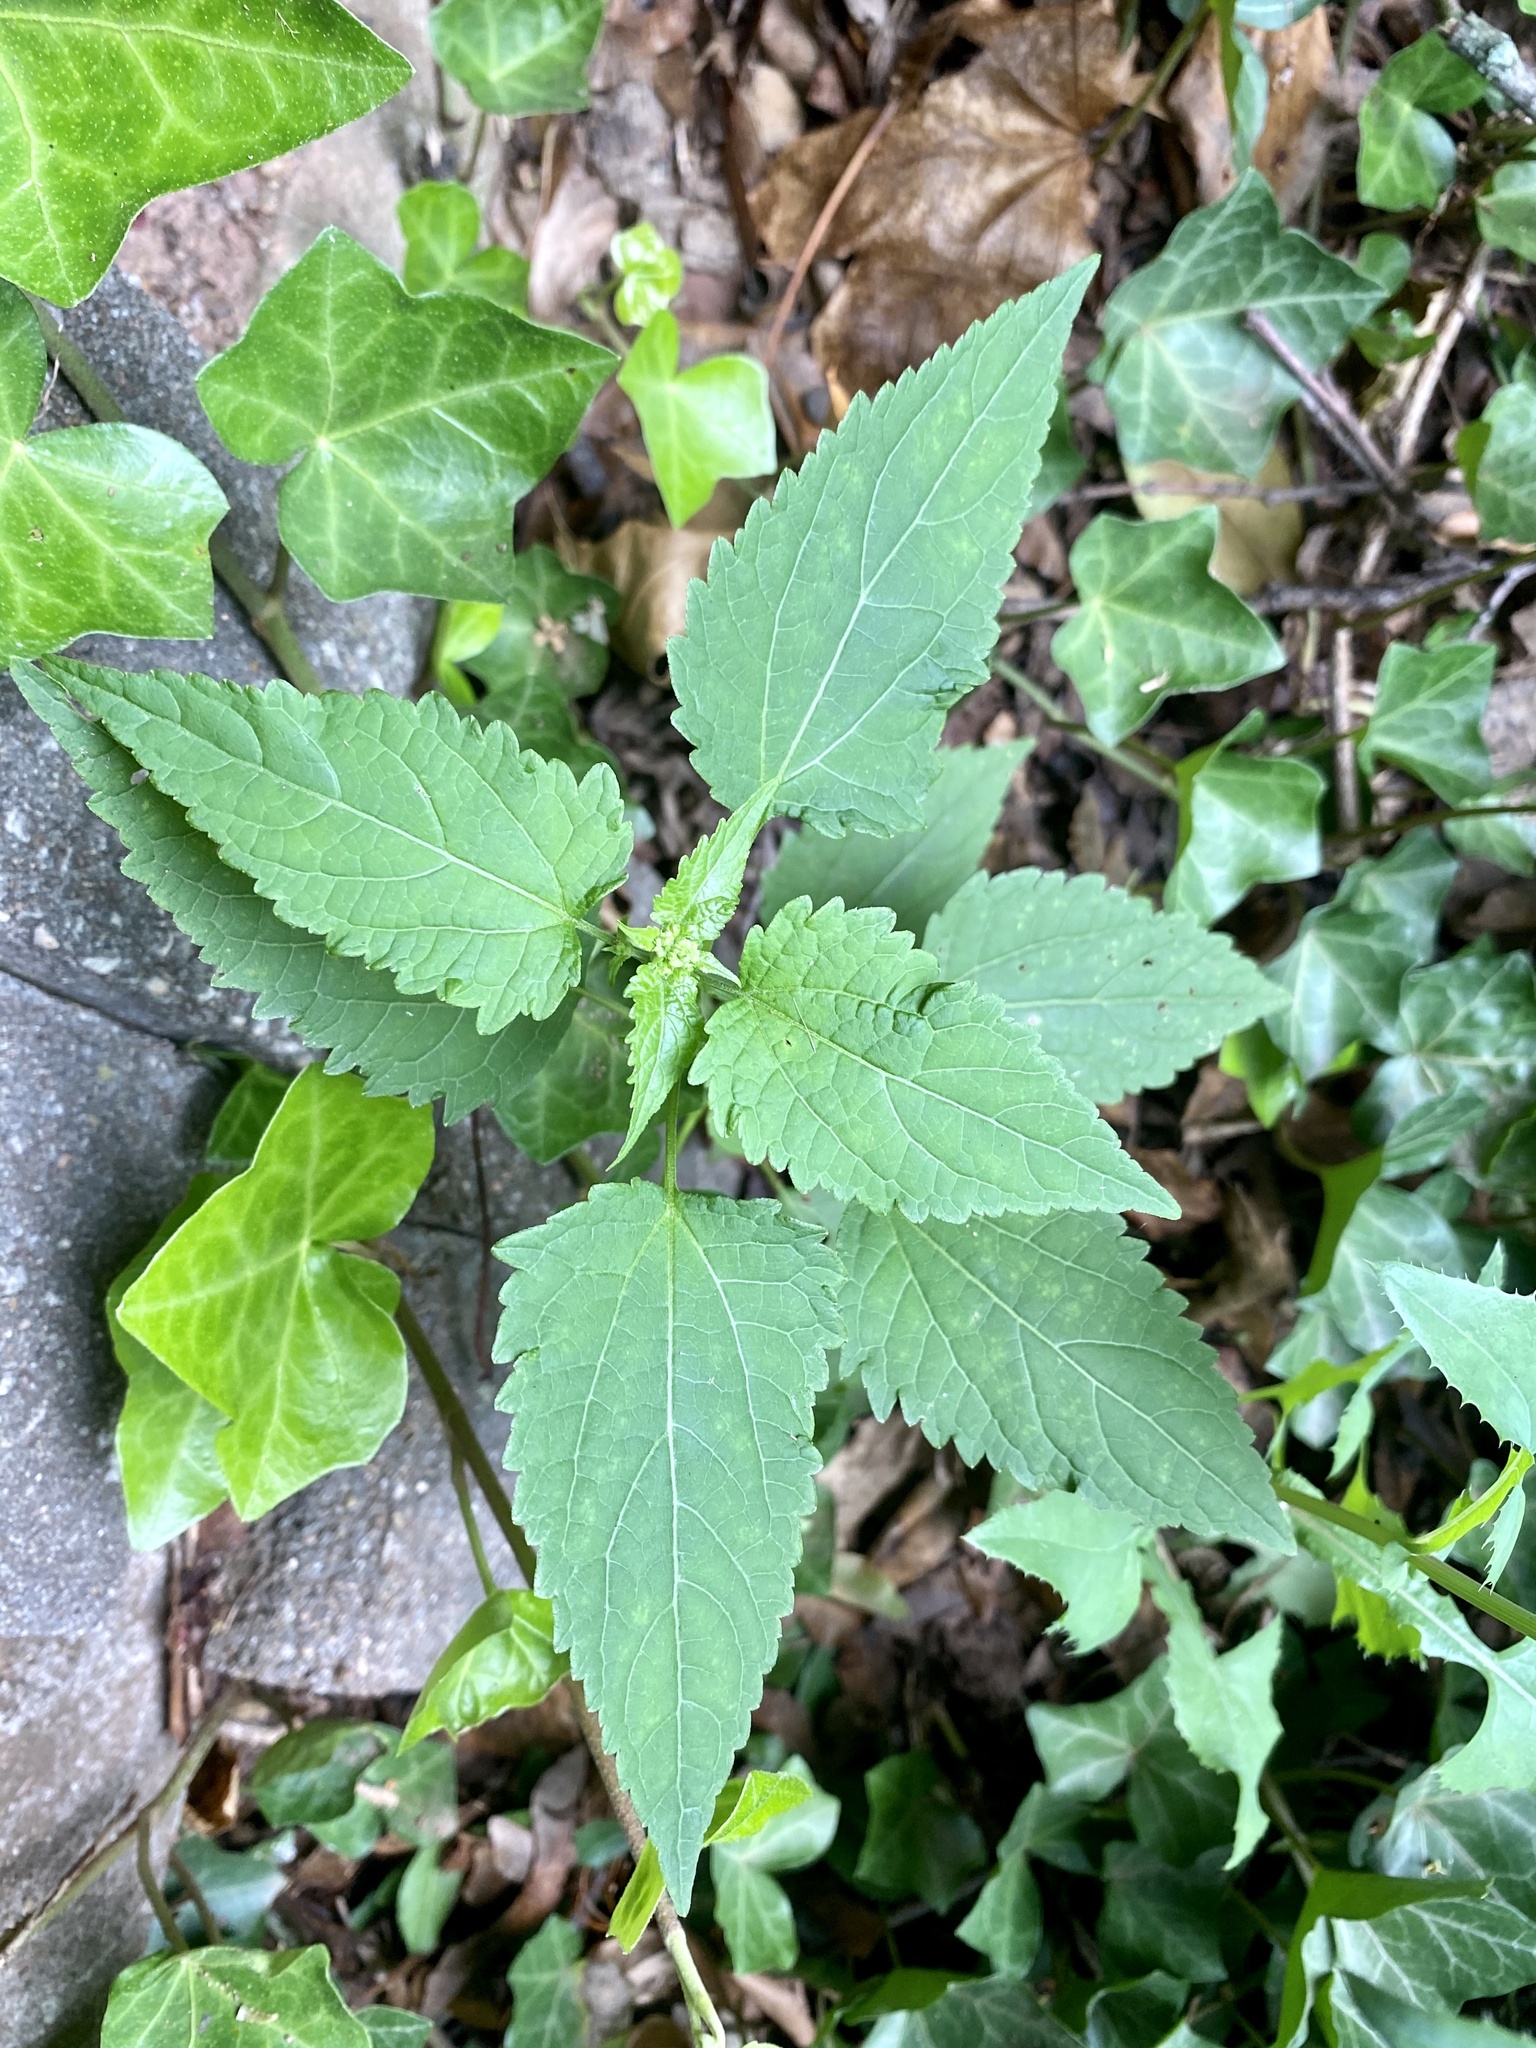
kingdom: Plantae
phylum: Tracheophyta
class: Magnoliopsida
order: Asterales
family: Asteraceae
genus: Ageratina
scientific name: Ageratina altissima
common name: White snakeroot
